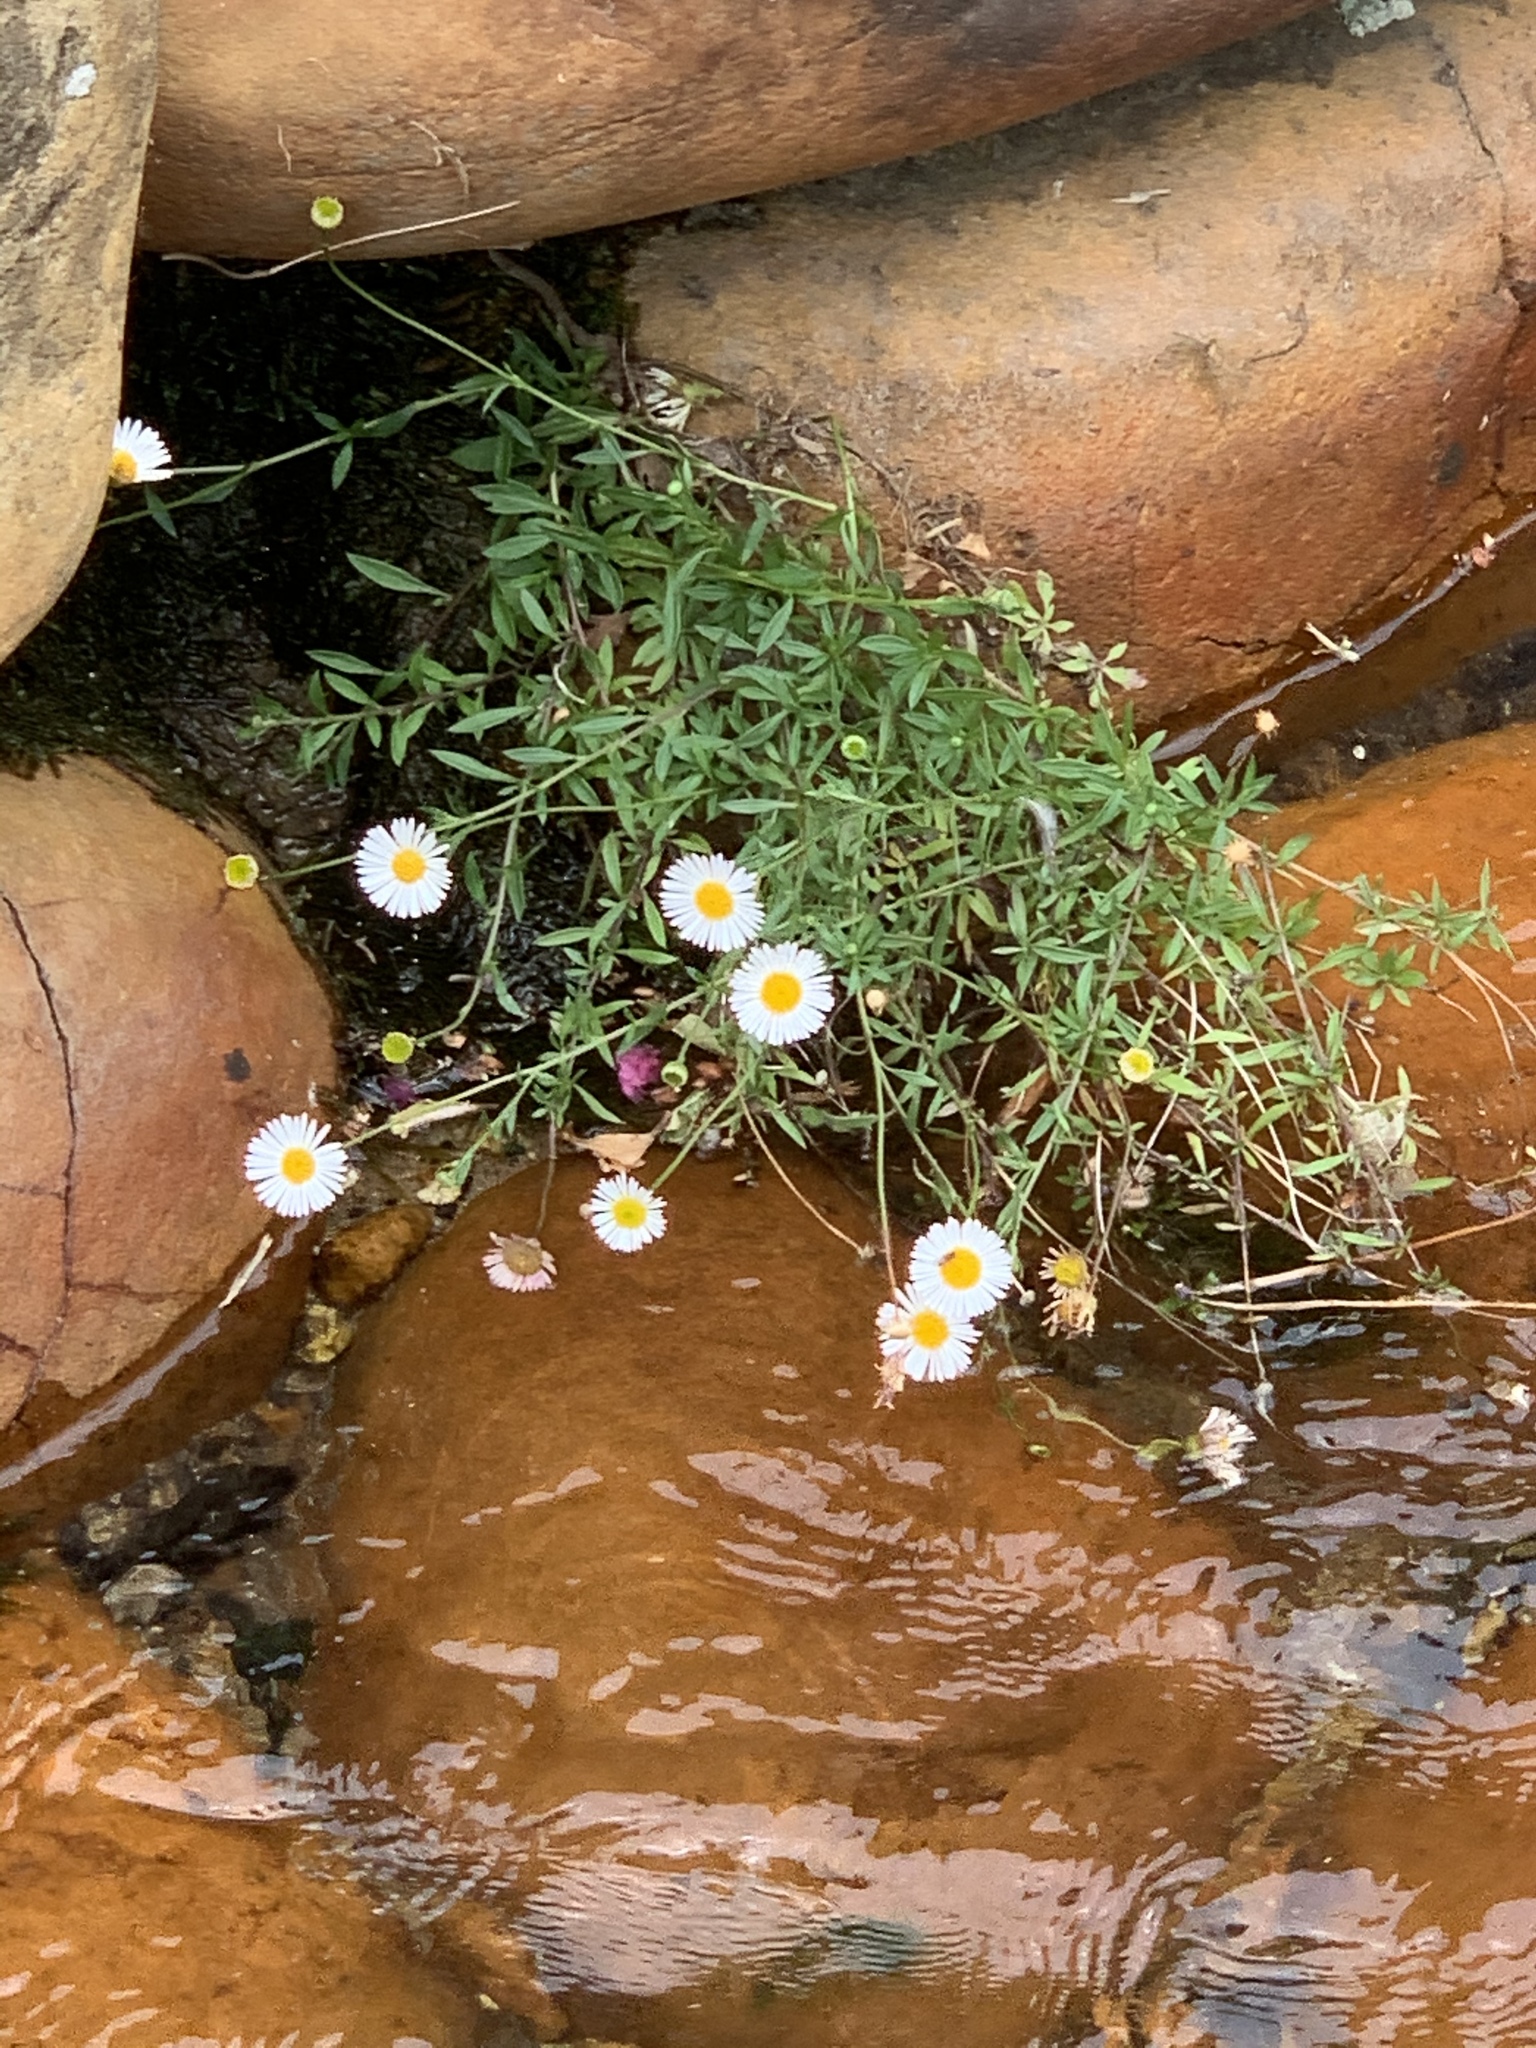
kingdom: Plantae
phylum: Tracheophyta
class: Magnoliopsida
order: Asterales
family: Asteraceae
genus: Erigeron
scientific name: Erigeron karvinskianus
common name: Mexican fleabane
